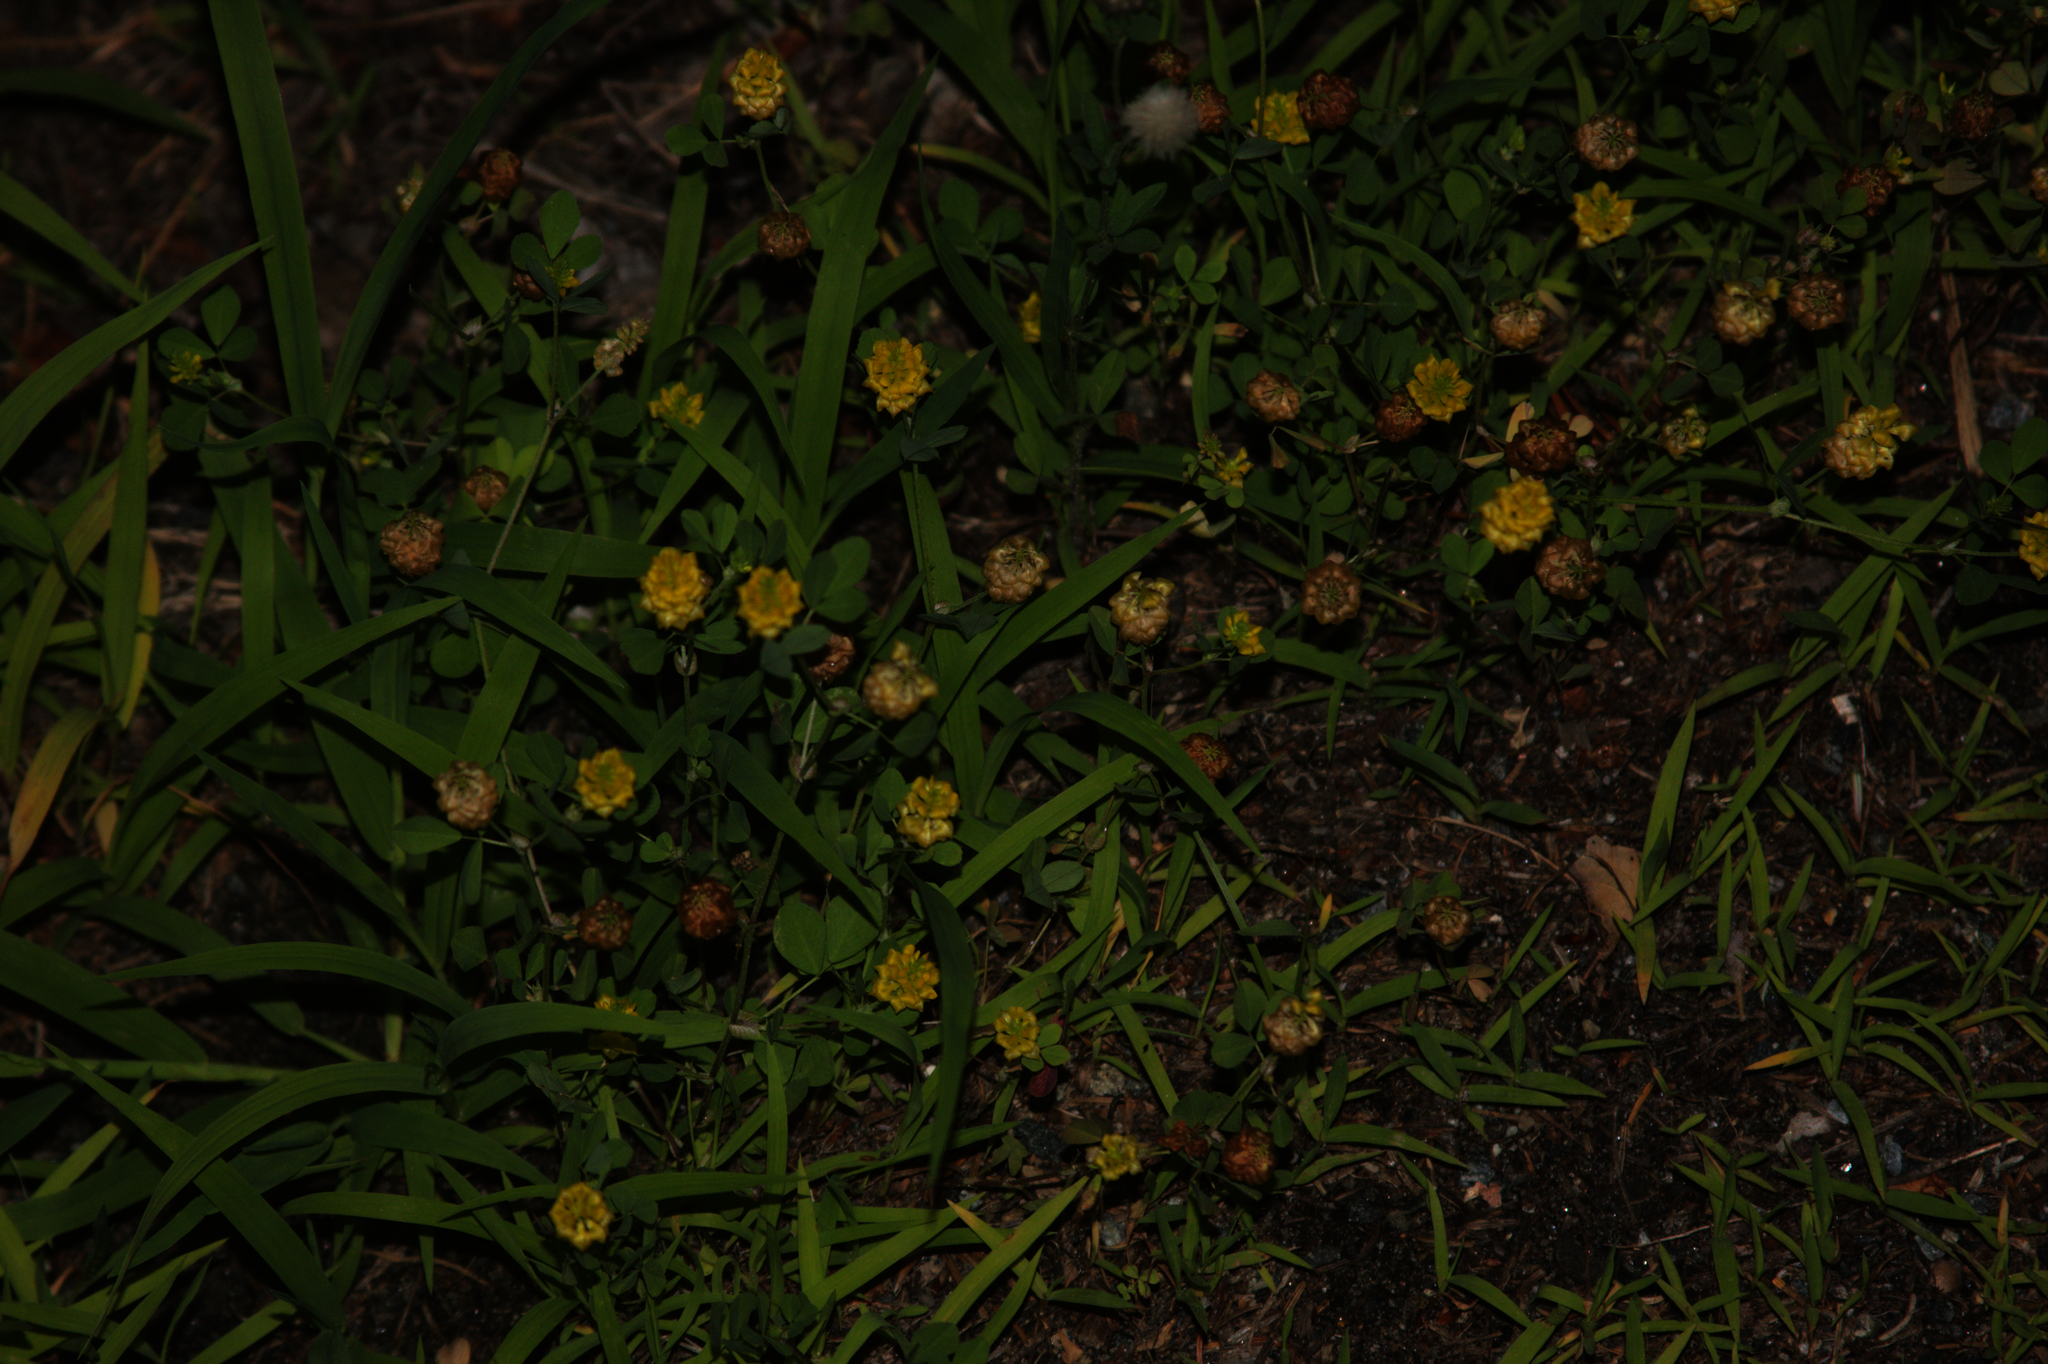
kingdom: Plantae
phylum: Tracheophyta
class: Magnoliopsida
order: Fabales
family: Fabaceae
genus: Trifolium
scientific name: Trifolium campestre
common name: Field clover
